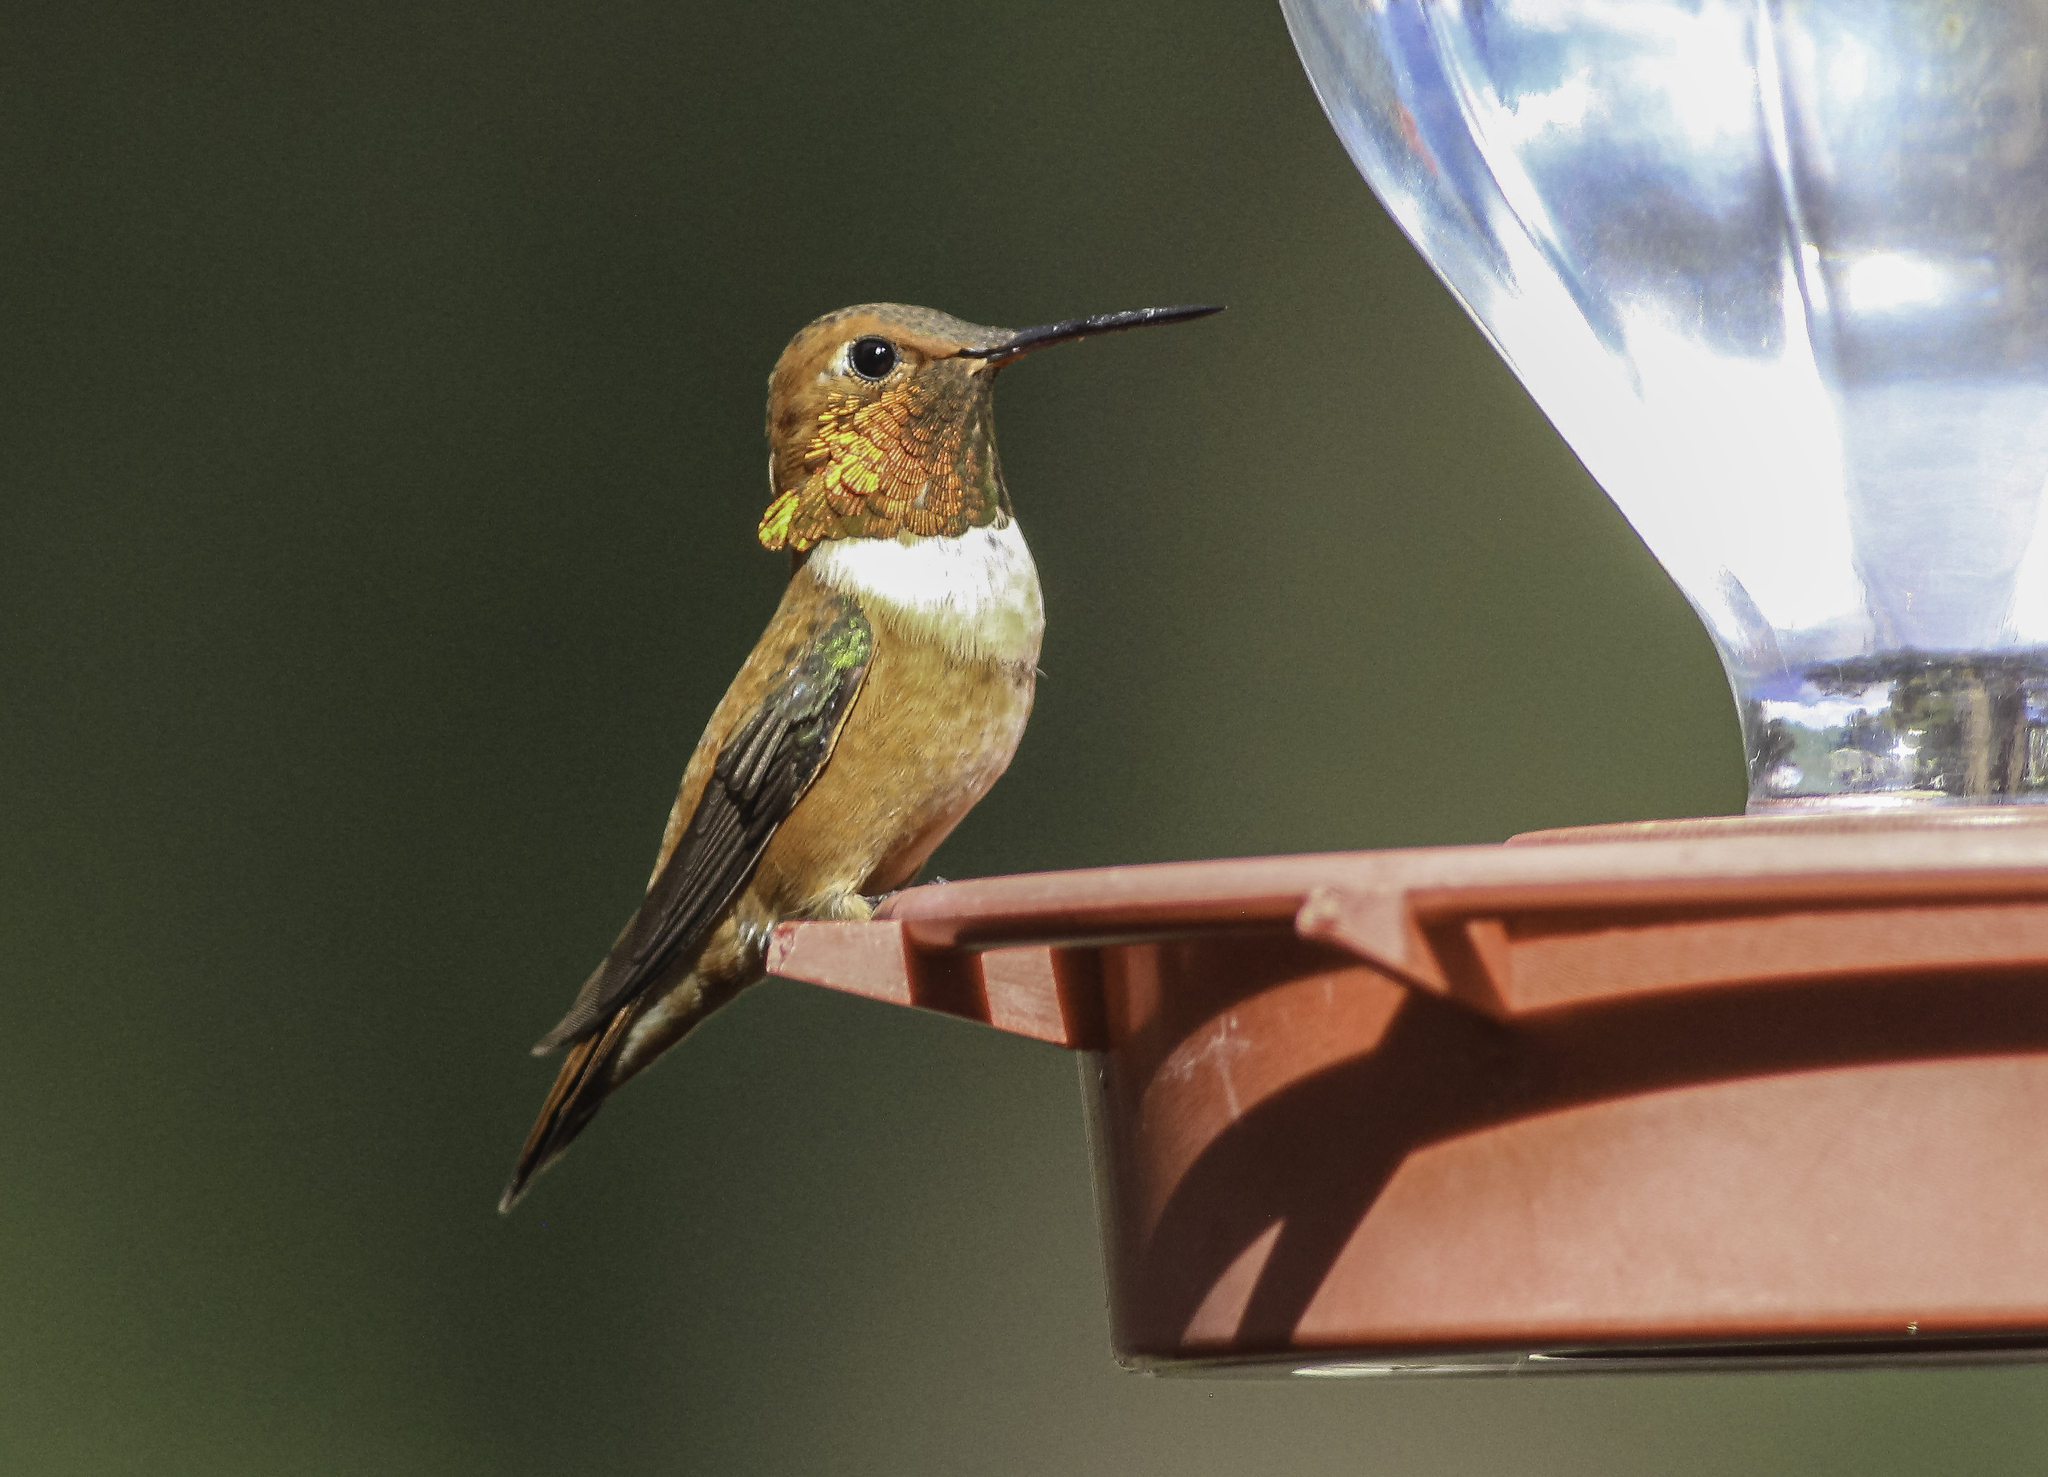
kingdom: Animalia
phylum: Chordata
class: Aves
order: Apodiformes
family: Trochilidae
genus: Selasphorus
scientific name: Selasphorus rufus
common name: Rufous hummingbird
